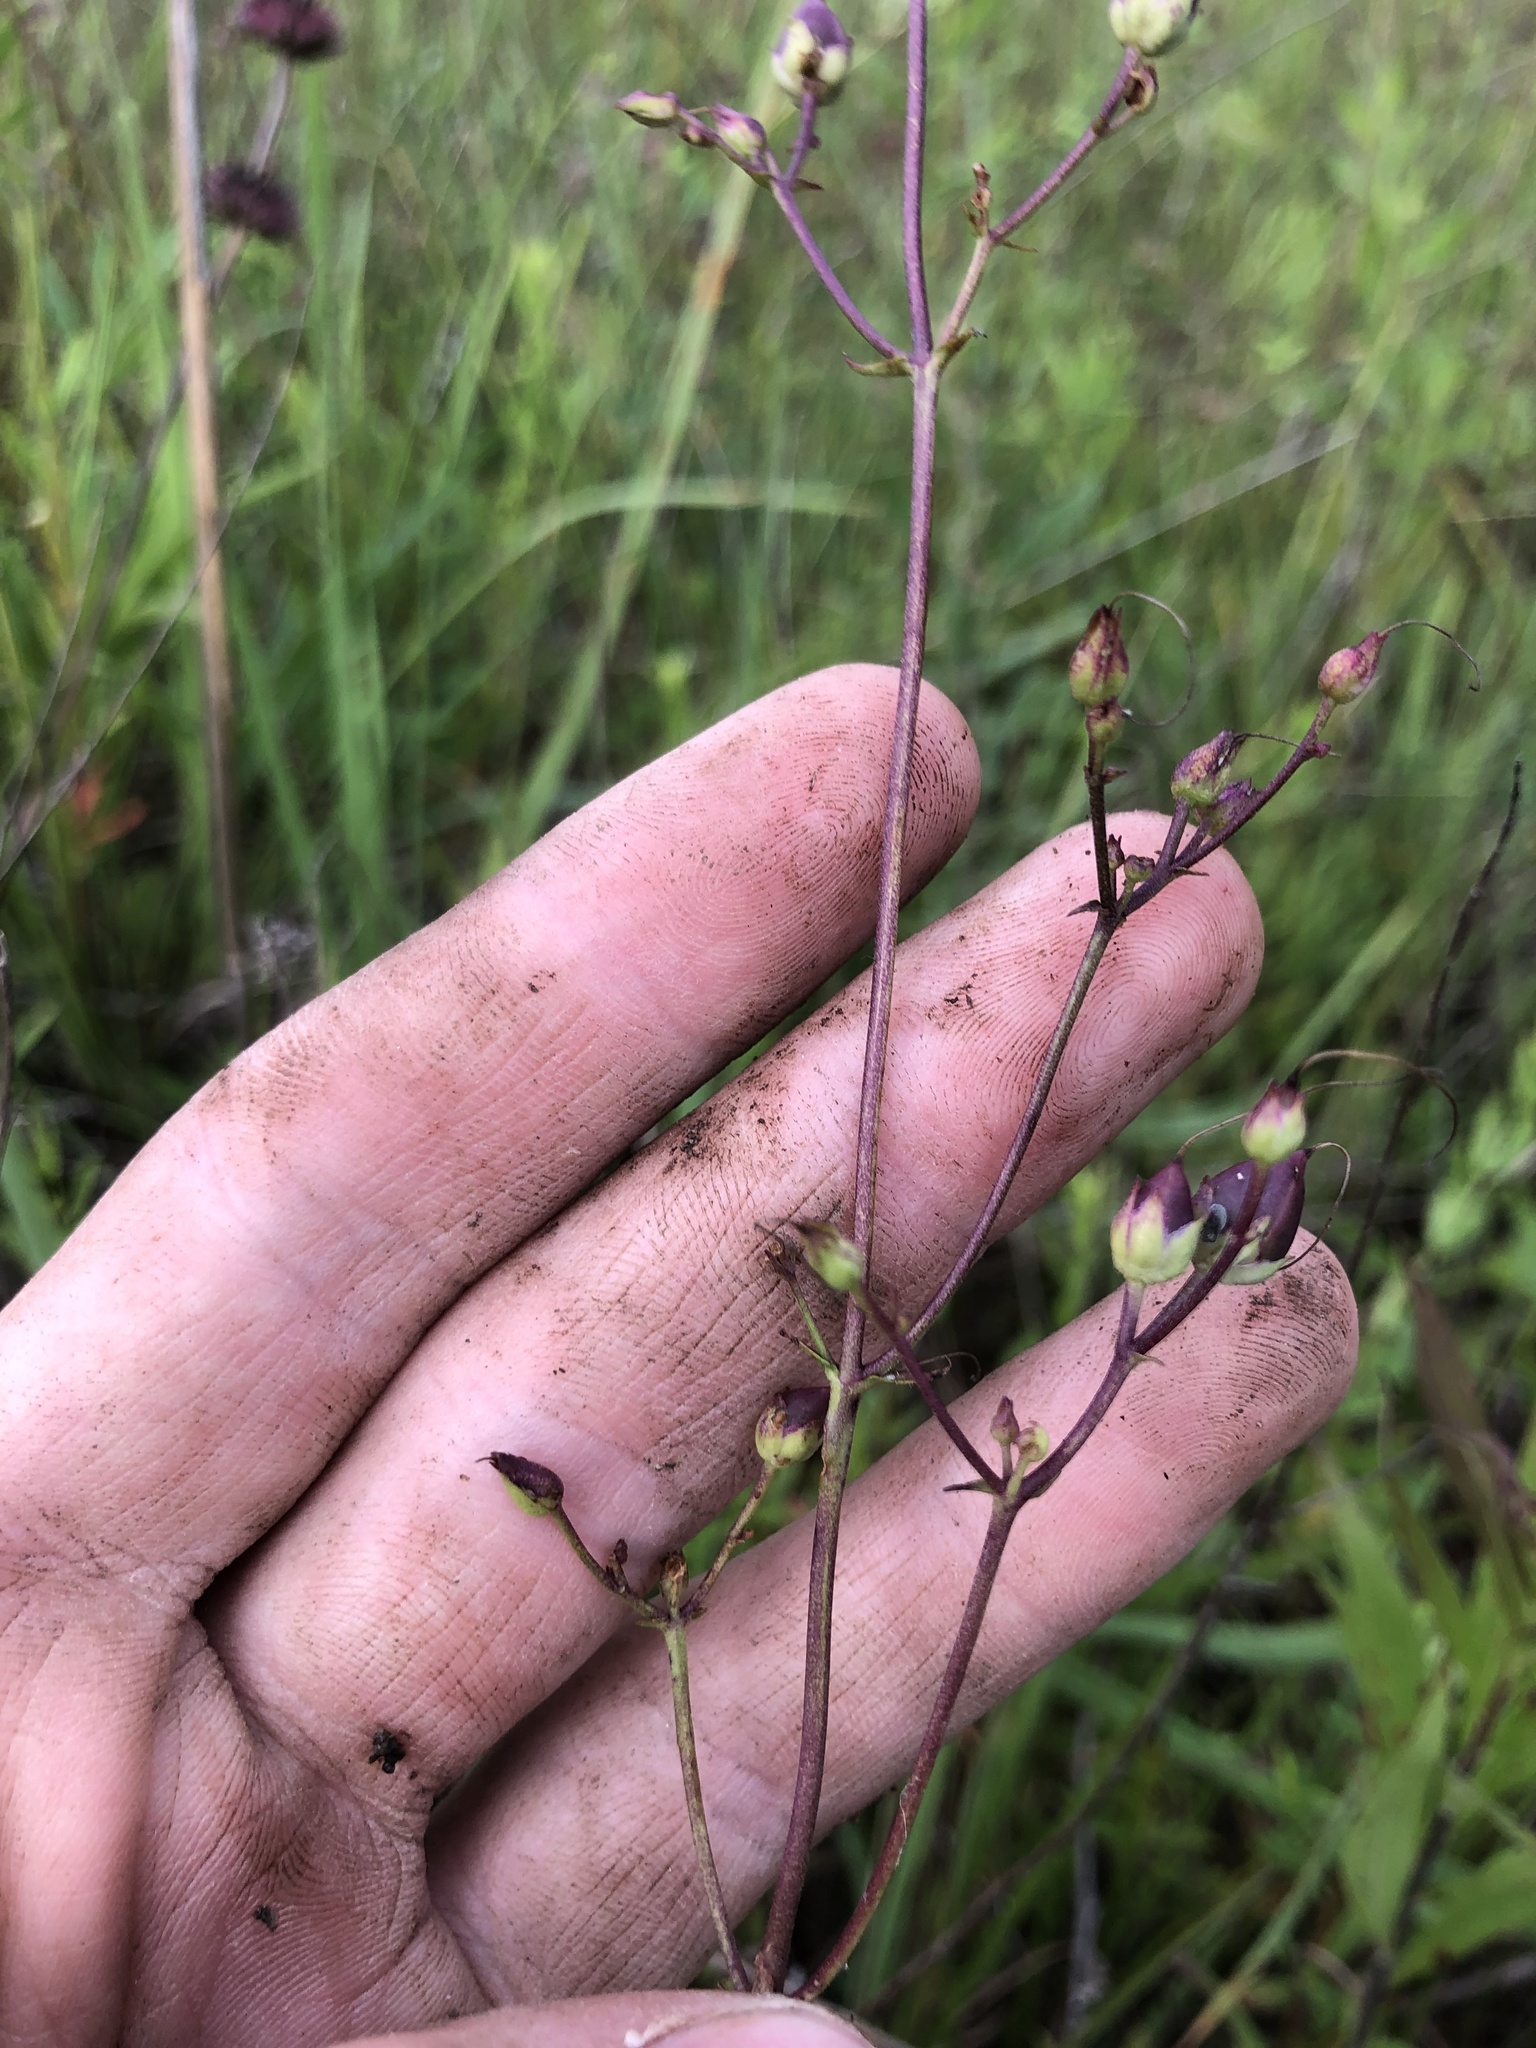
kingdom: Plantae
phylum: Tracheophyta
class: Magnoliopsida
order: Lamiales
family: Plantaginaceae
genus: Penstemon
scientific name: Penstemon tenuiflorus
